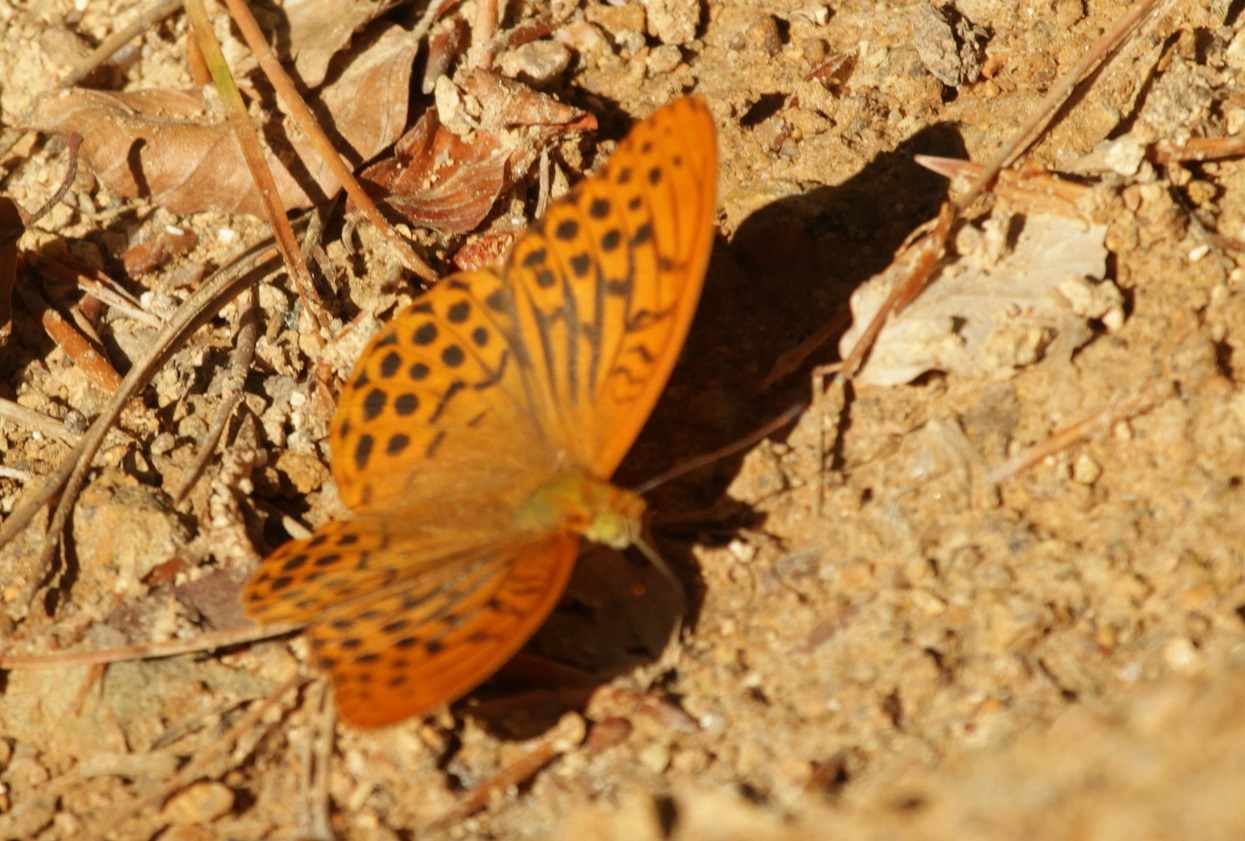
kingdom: Animalia
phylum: Arthropoda
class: Insecta
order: Lepidoptera
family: Nymphalidae
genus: Argynnis
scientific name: Argynnis paphia
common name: Silver-washed fritillary
